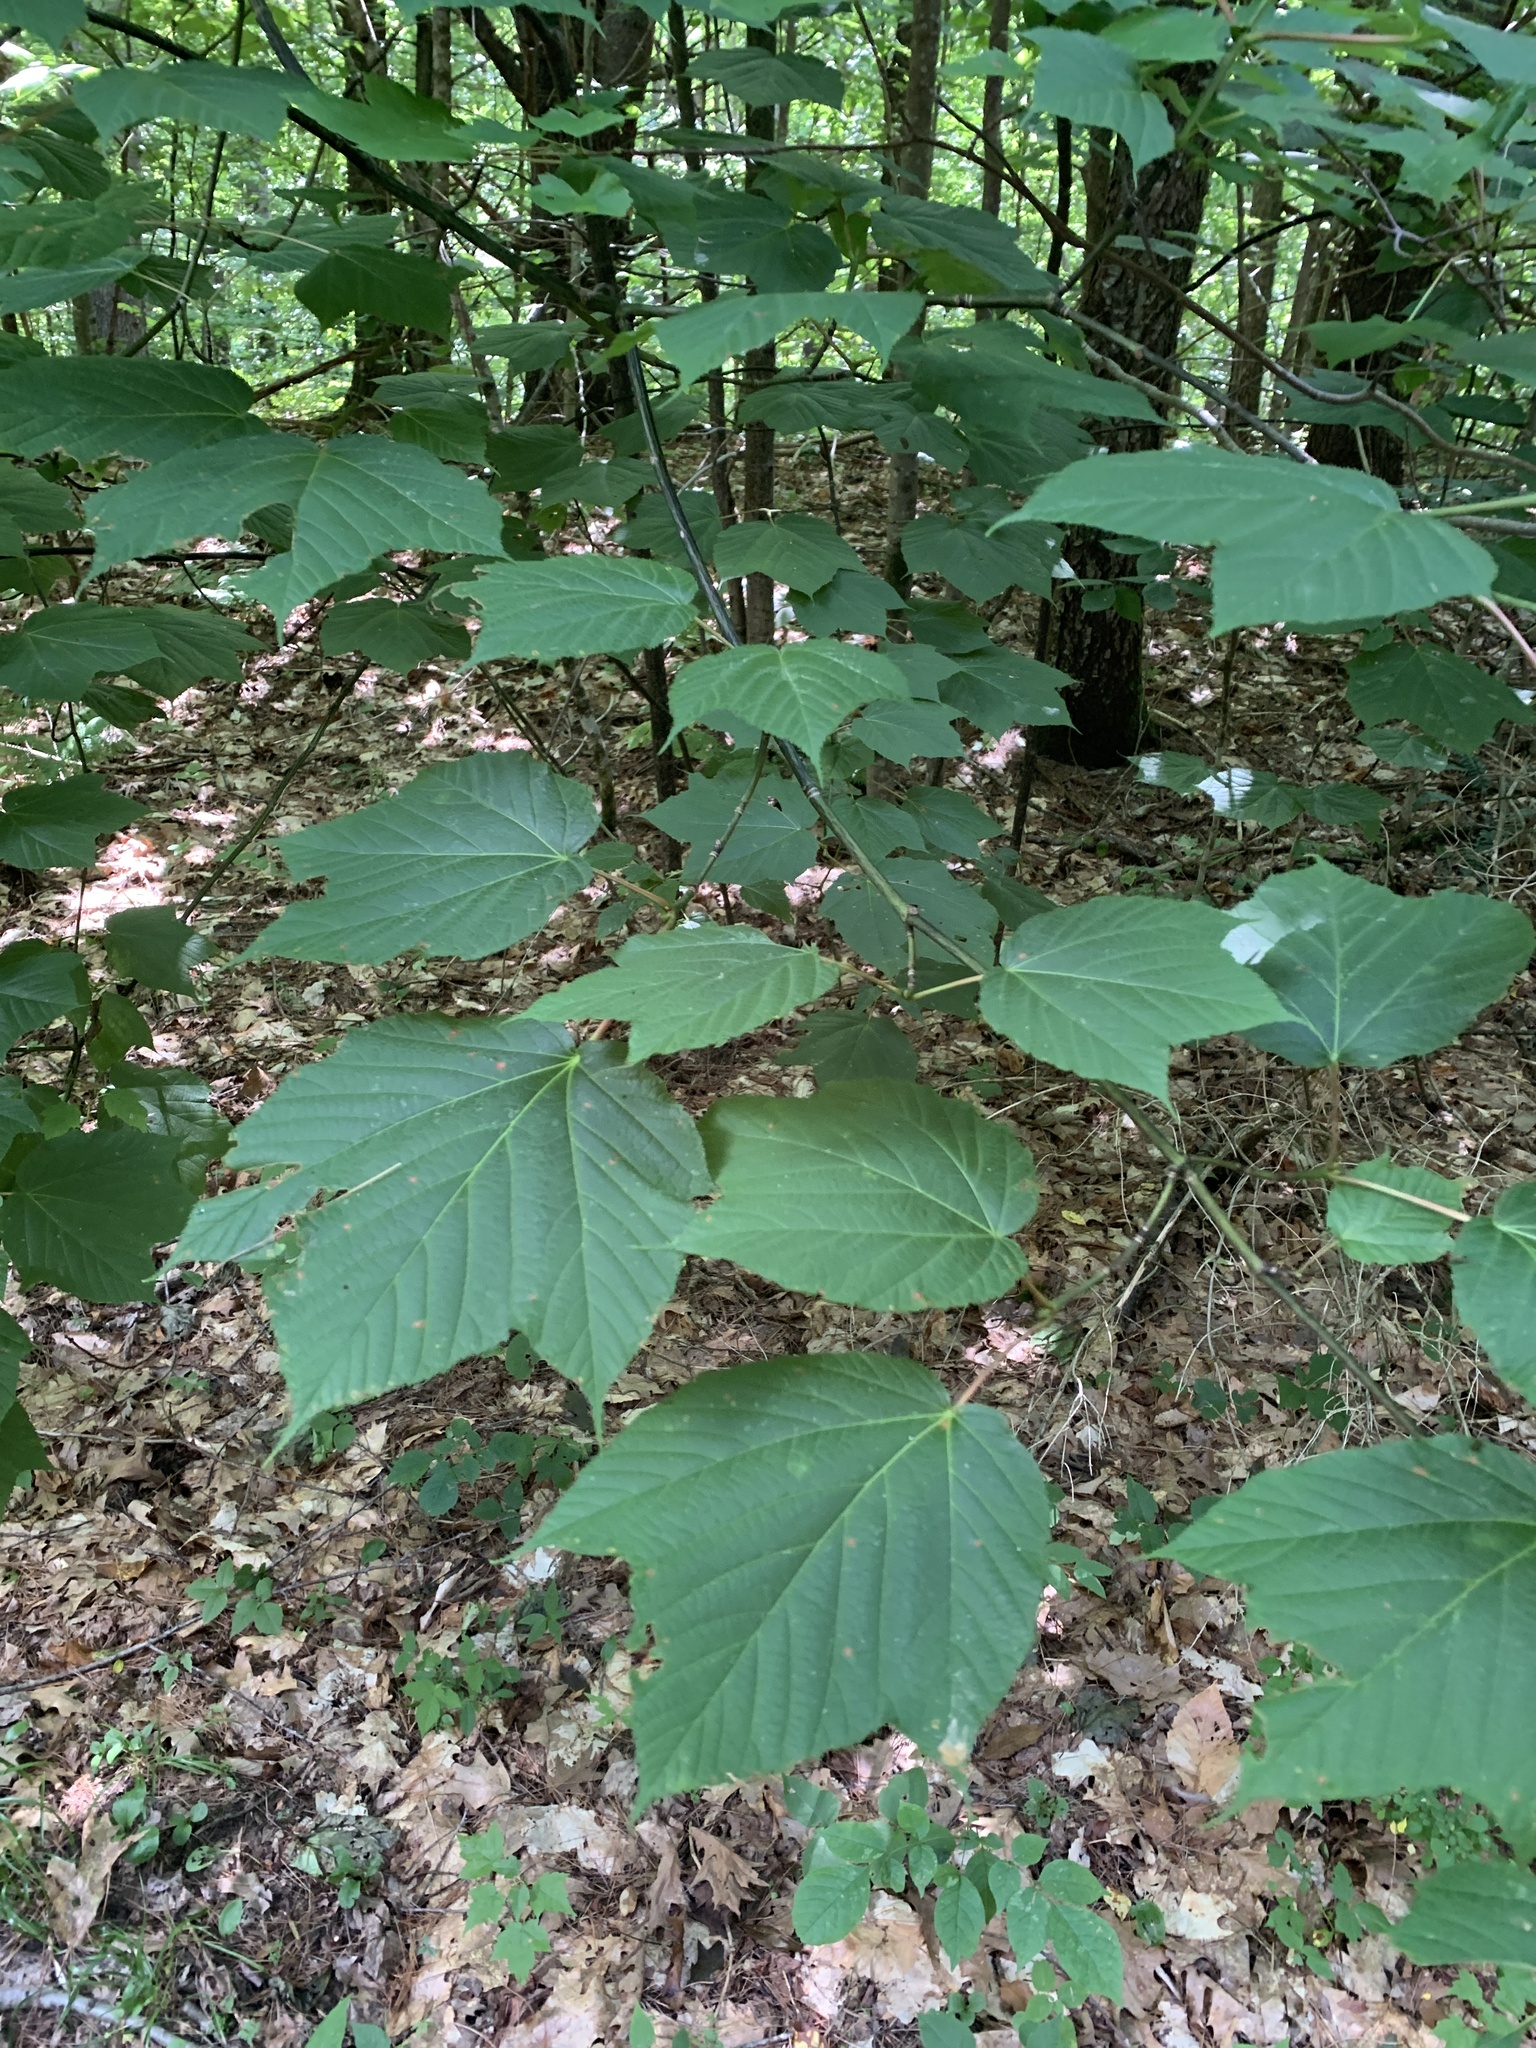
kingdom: Plantae
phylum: Tracheophyta
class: Magnoliopsida
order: Sapindales
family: Sapindaceae
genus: Acer
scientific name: Acer pensylvanicum
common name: Moosewood
